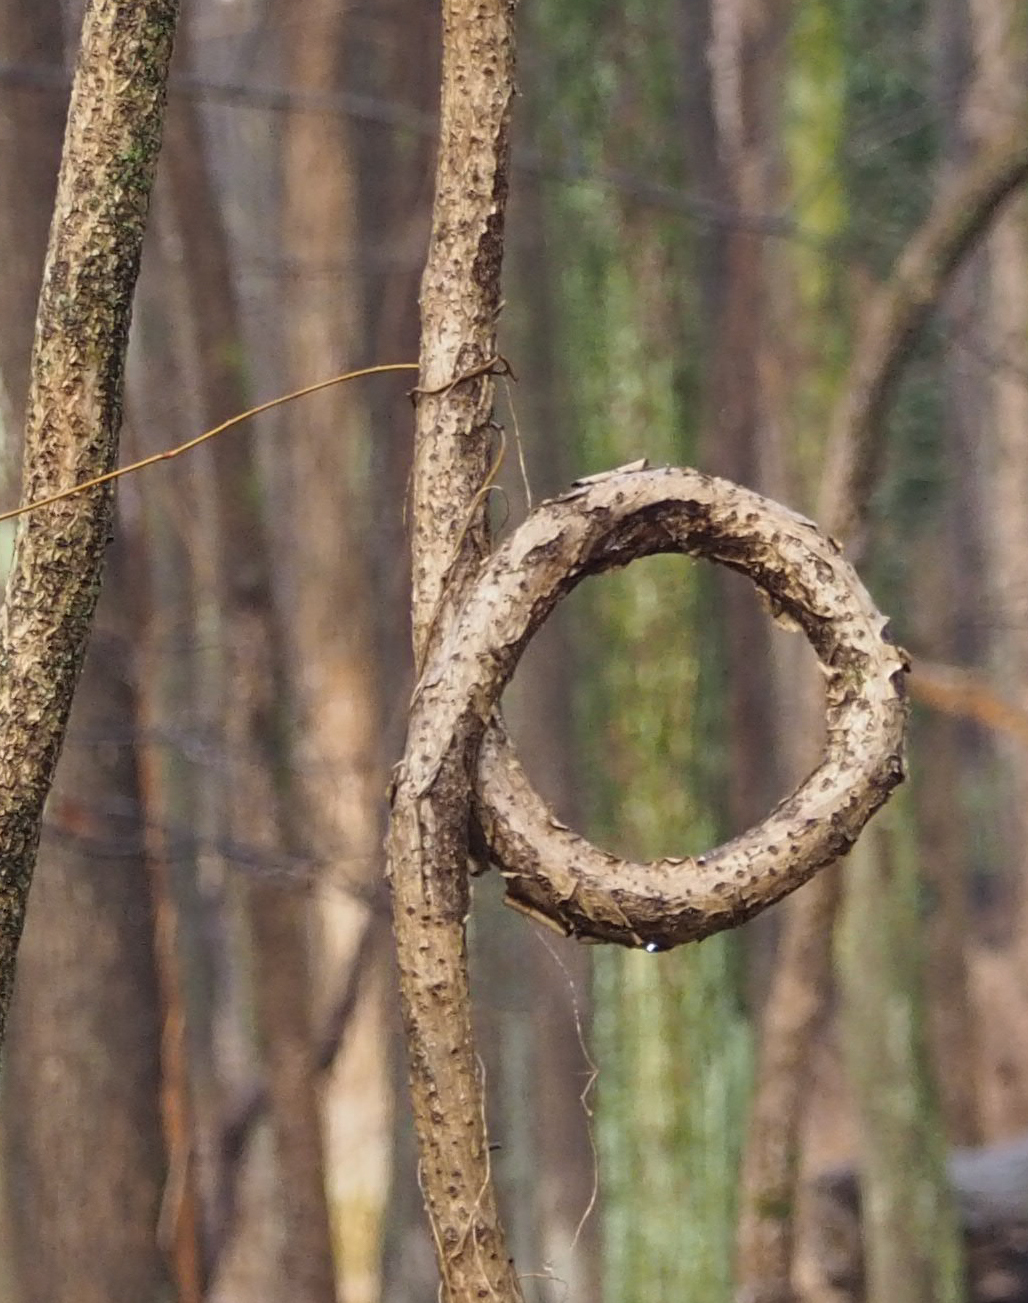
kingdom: Plantae
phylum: Tracheophyta
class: Magnoliopsida
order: Celastrales
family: Celastraceae
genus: Celastrus
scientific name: Celastrus orbiculatus
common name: Oriental bittersweet
